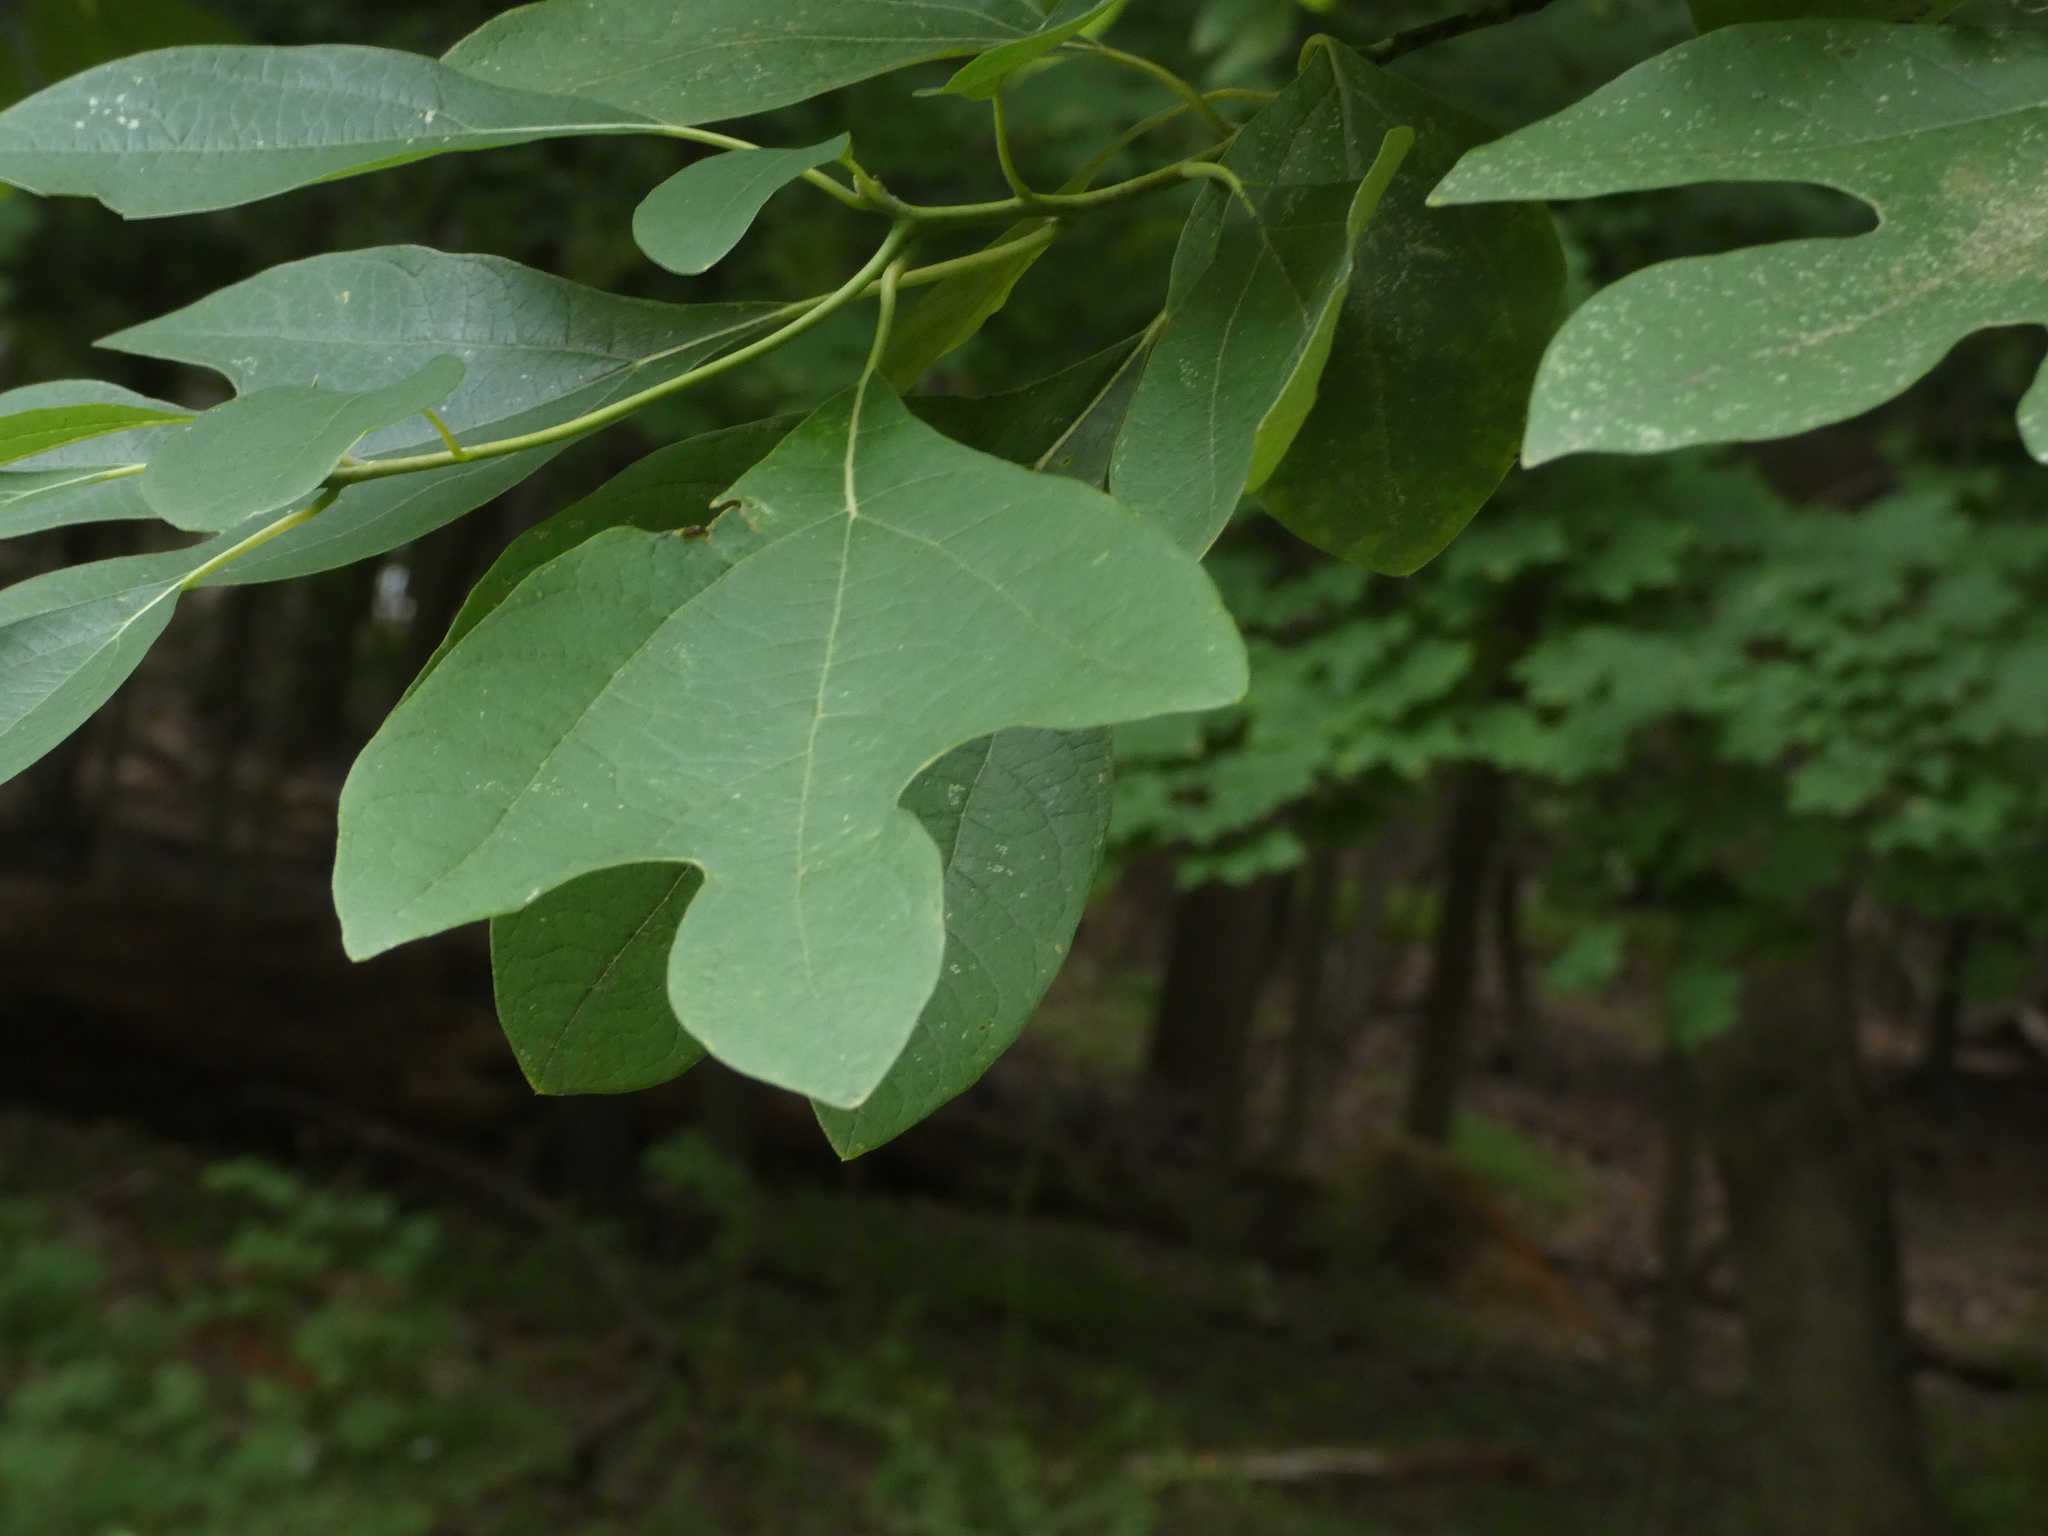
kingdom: Plantae
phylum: Tracheophyta
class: Magnoliopsida
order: Laurales
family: Lauraceae
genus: Sassafras
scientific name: Sassafras albidum
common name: Sassafras
